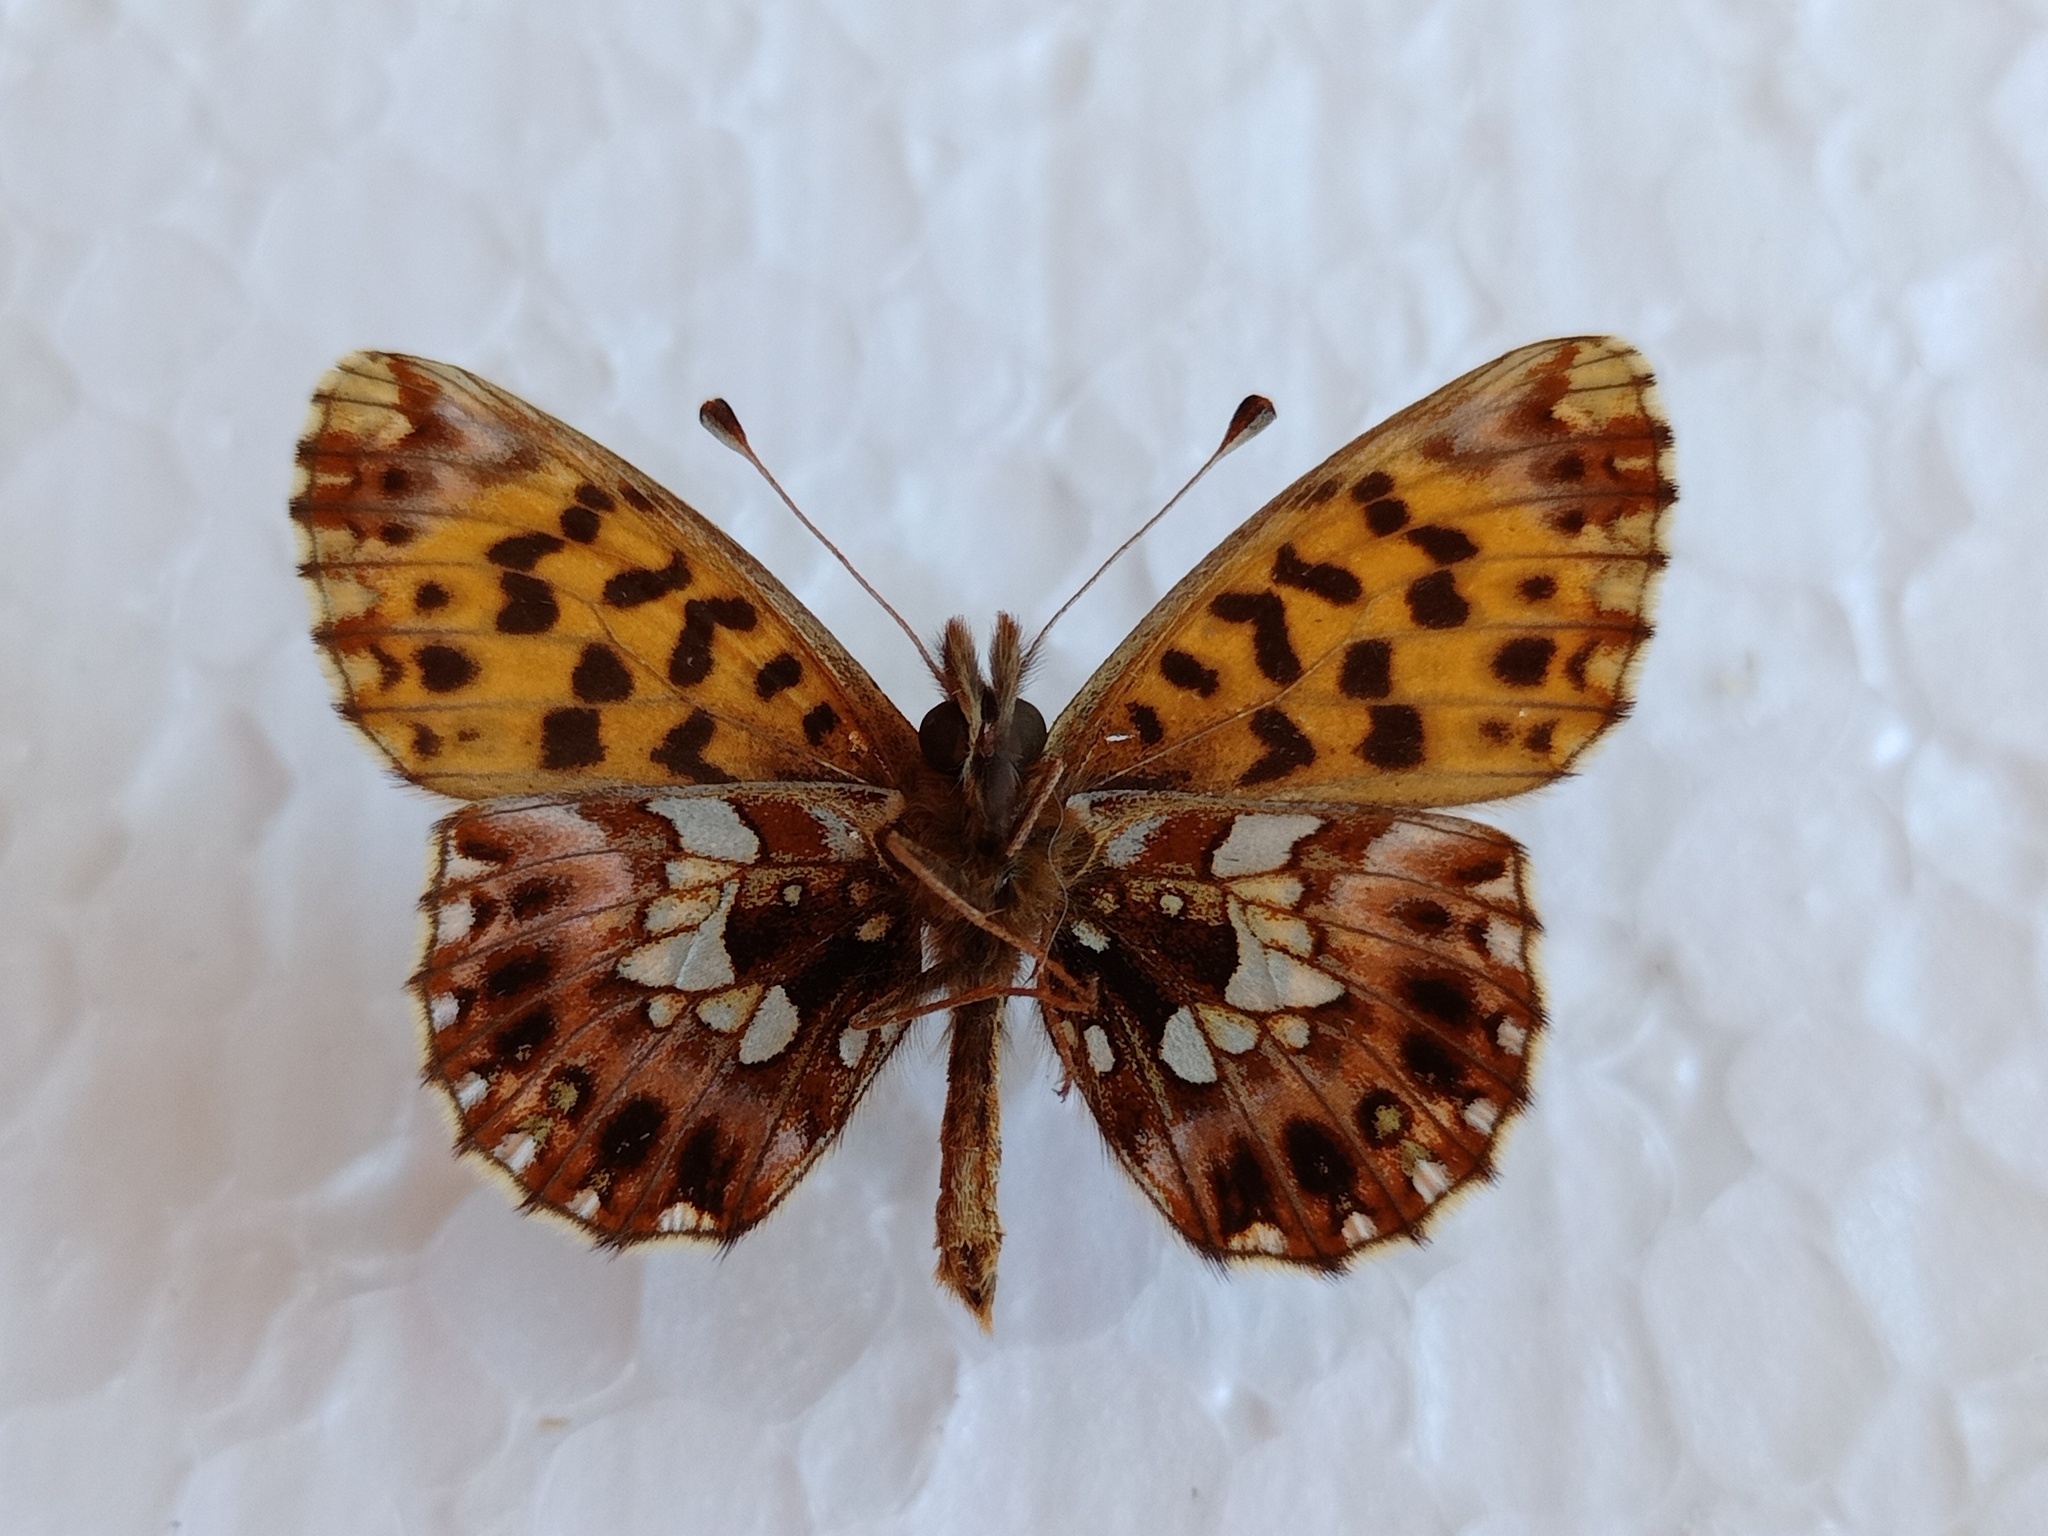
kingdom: Animalia
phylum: Arthropoda
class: Insecta
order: Lepidoptera
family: Nymphalidae
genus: Boloria
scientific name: Boloria dia
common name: Weaver's fritillary
